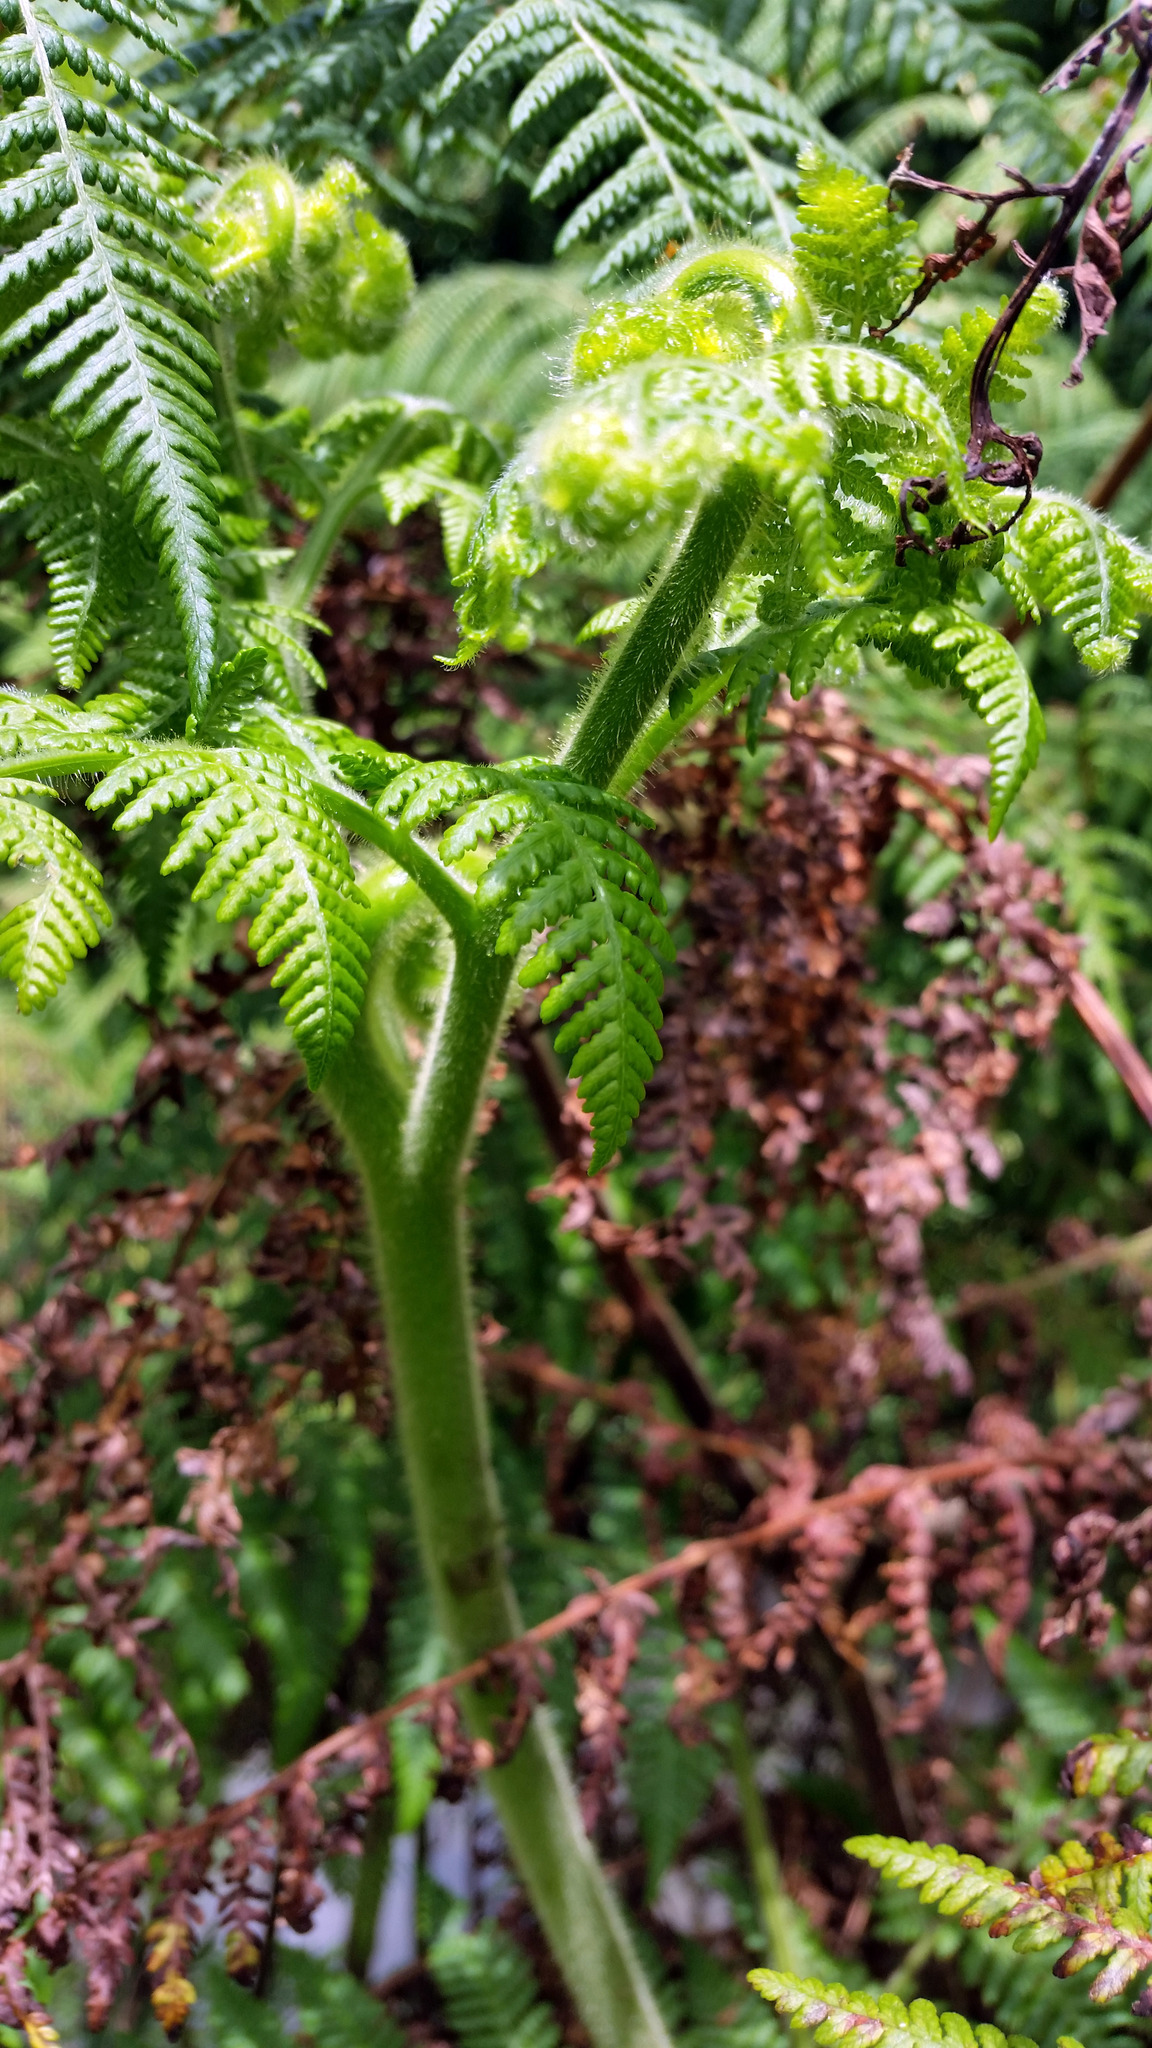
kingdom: Plantae
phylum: Tracheophyta
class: Polypodiopsida
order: Polypodiales
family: Dennstaedtiaceae
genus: Hypolepis
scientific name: Hypolepis dicksonioides
